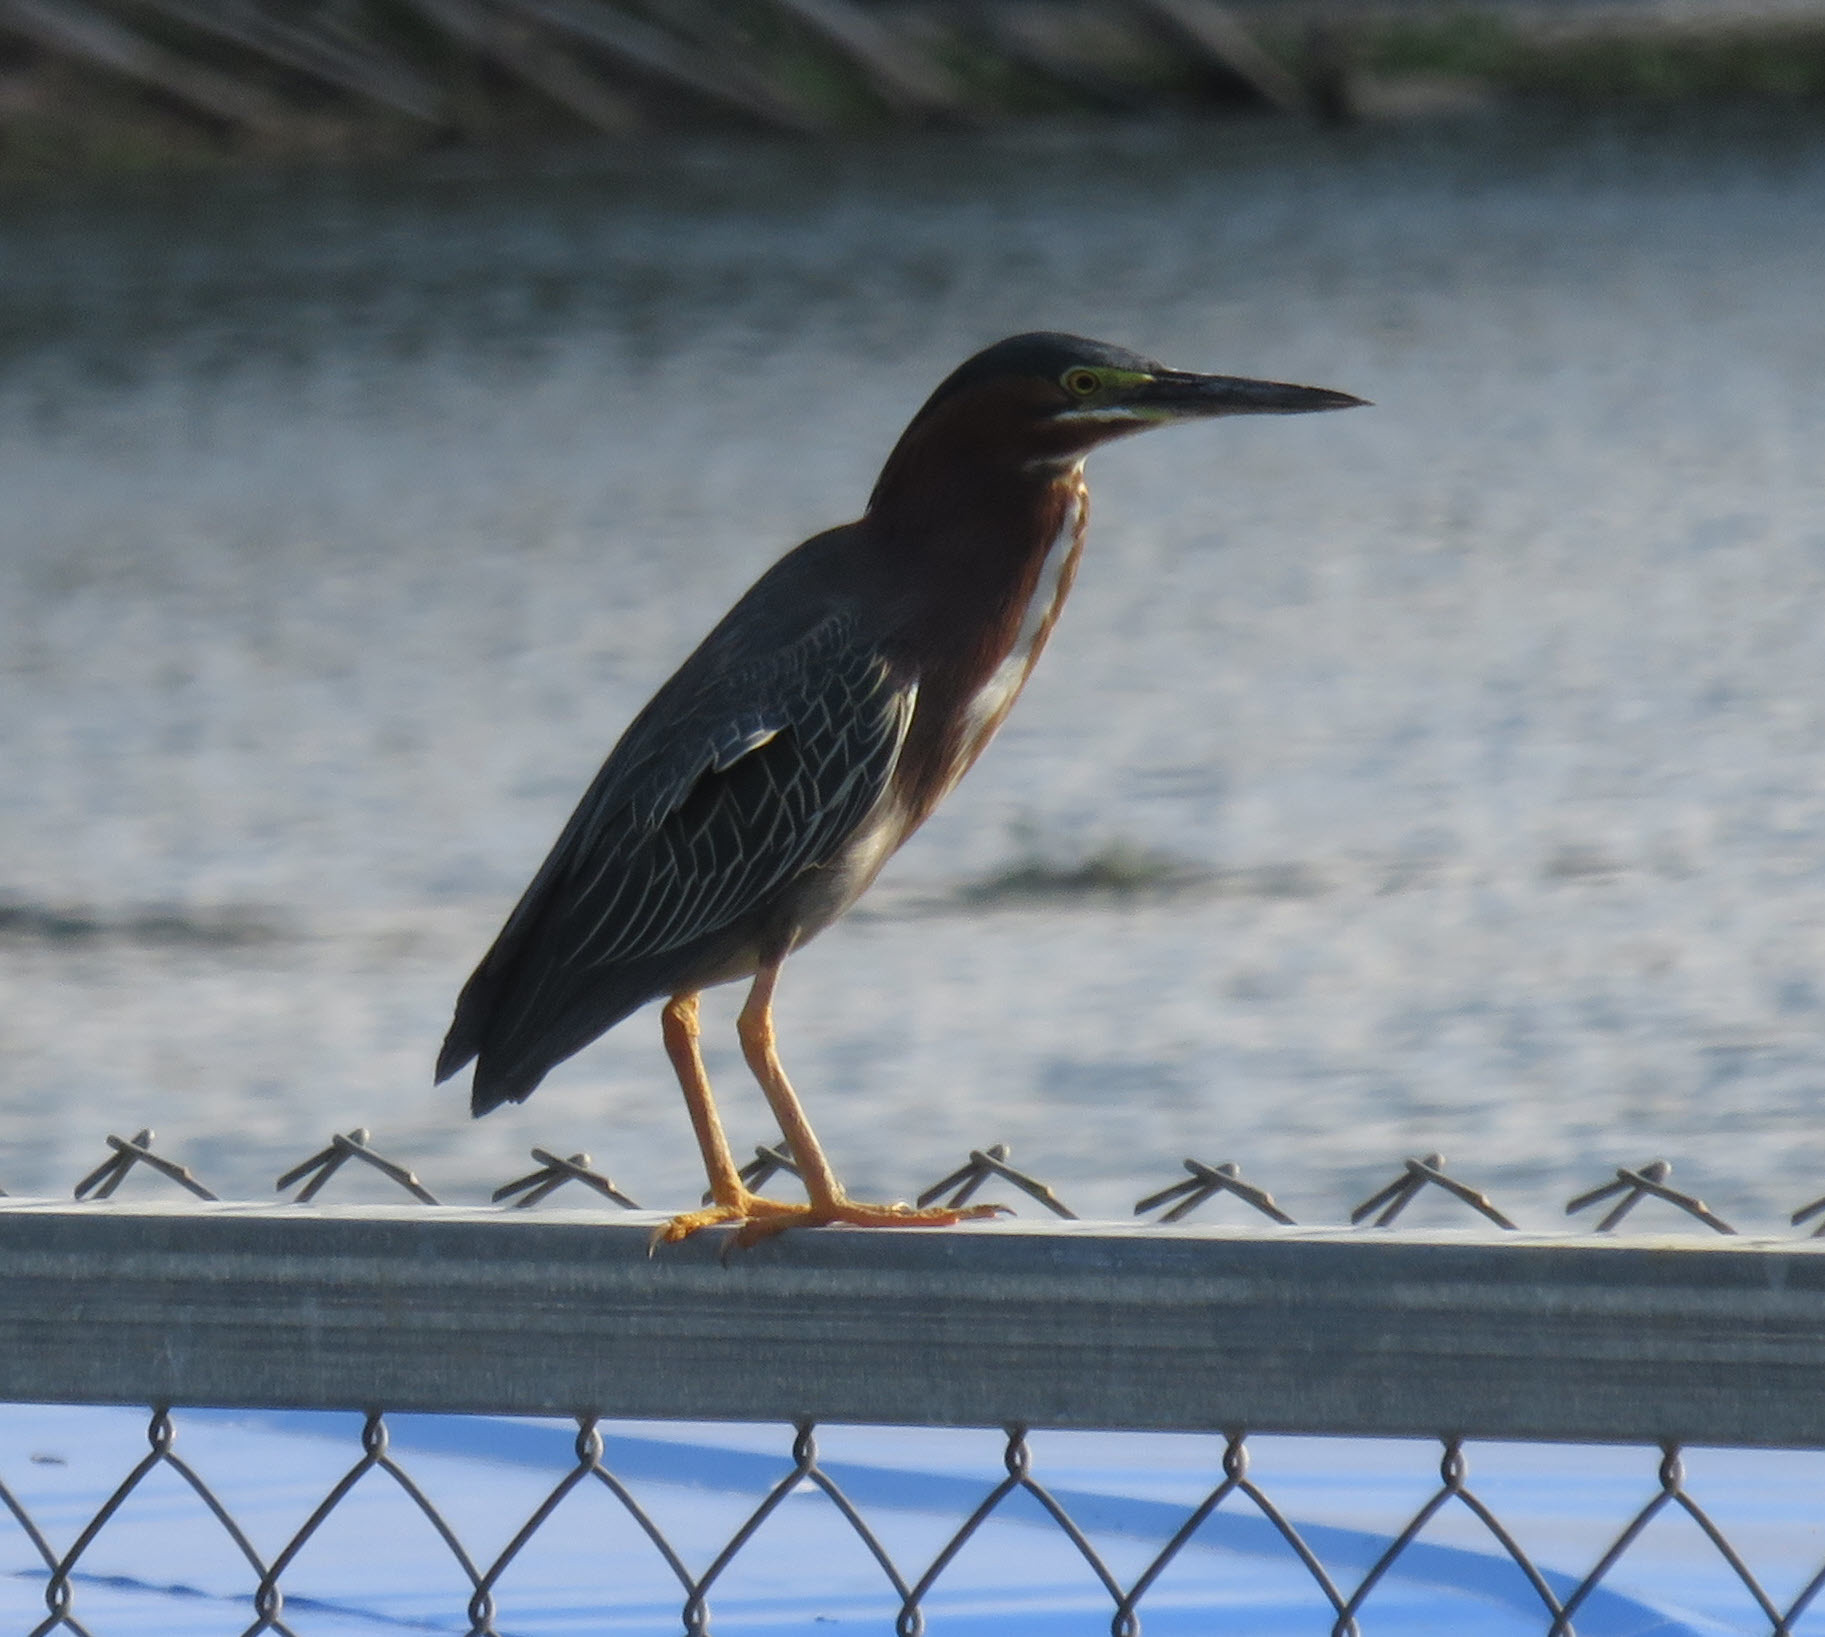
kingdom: Animalia
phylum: Chordata
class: Aves
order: Pelecaniformes
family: Ardeidae
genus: Butorides
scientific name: Butorides virescens
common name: Green heron
